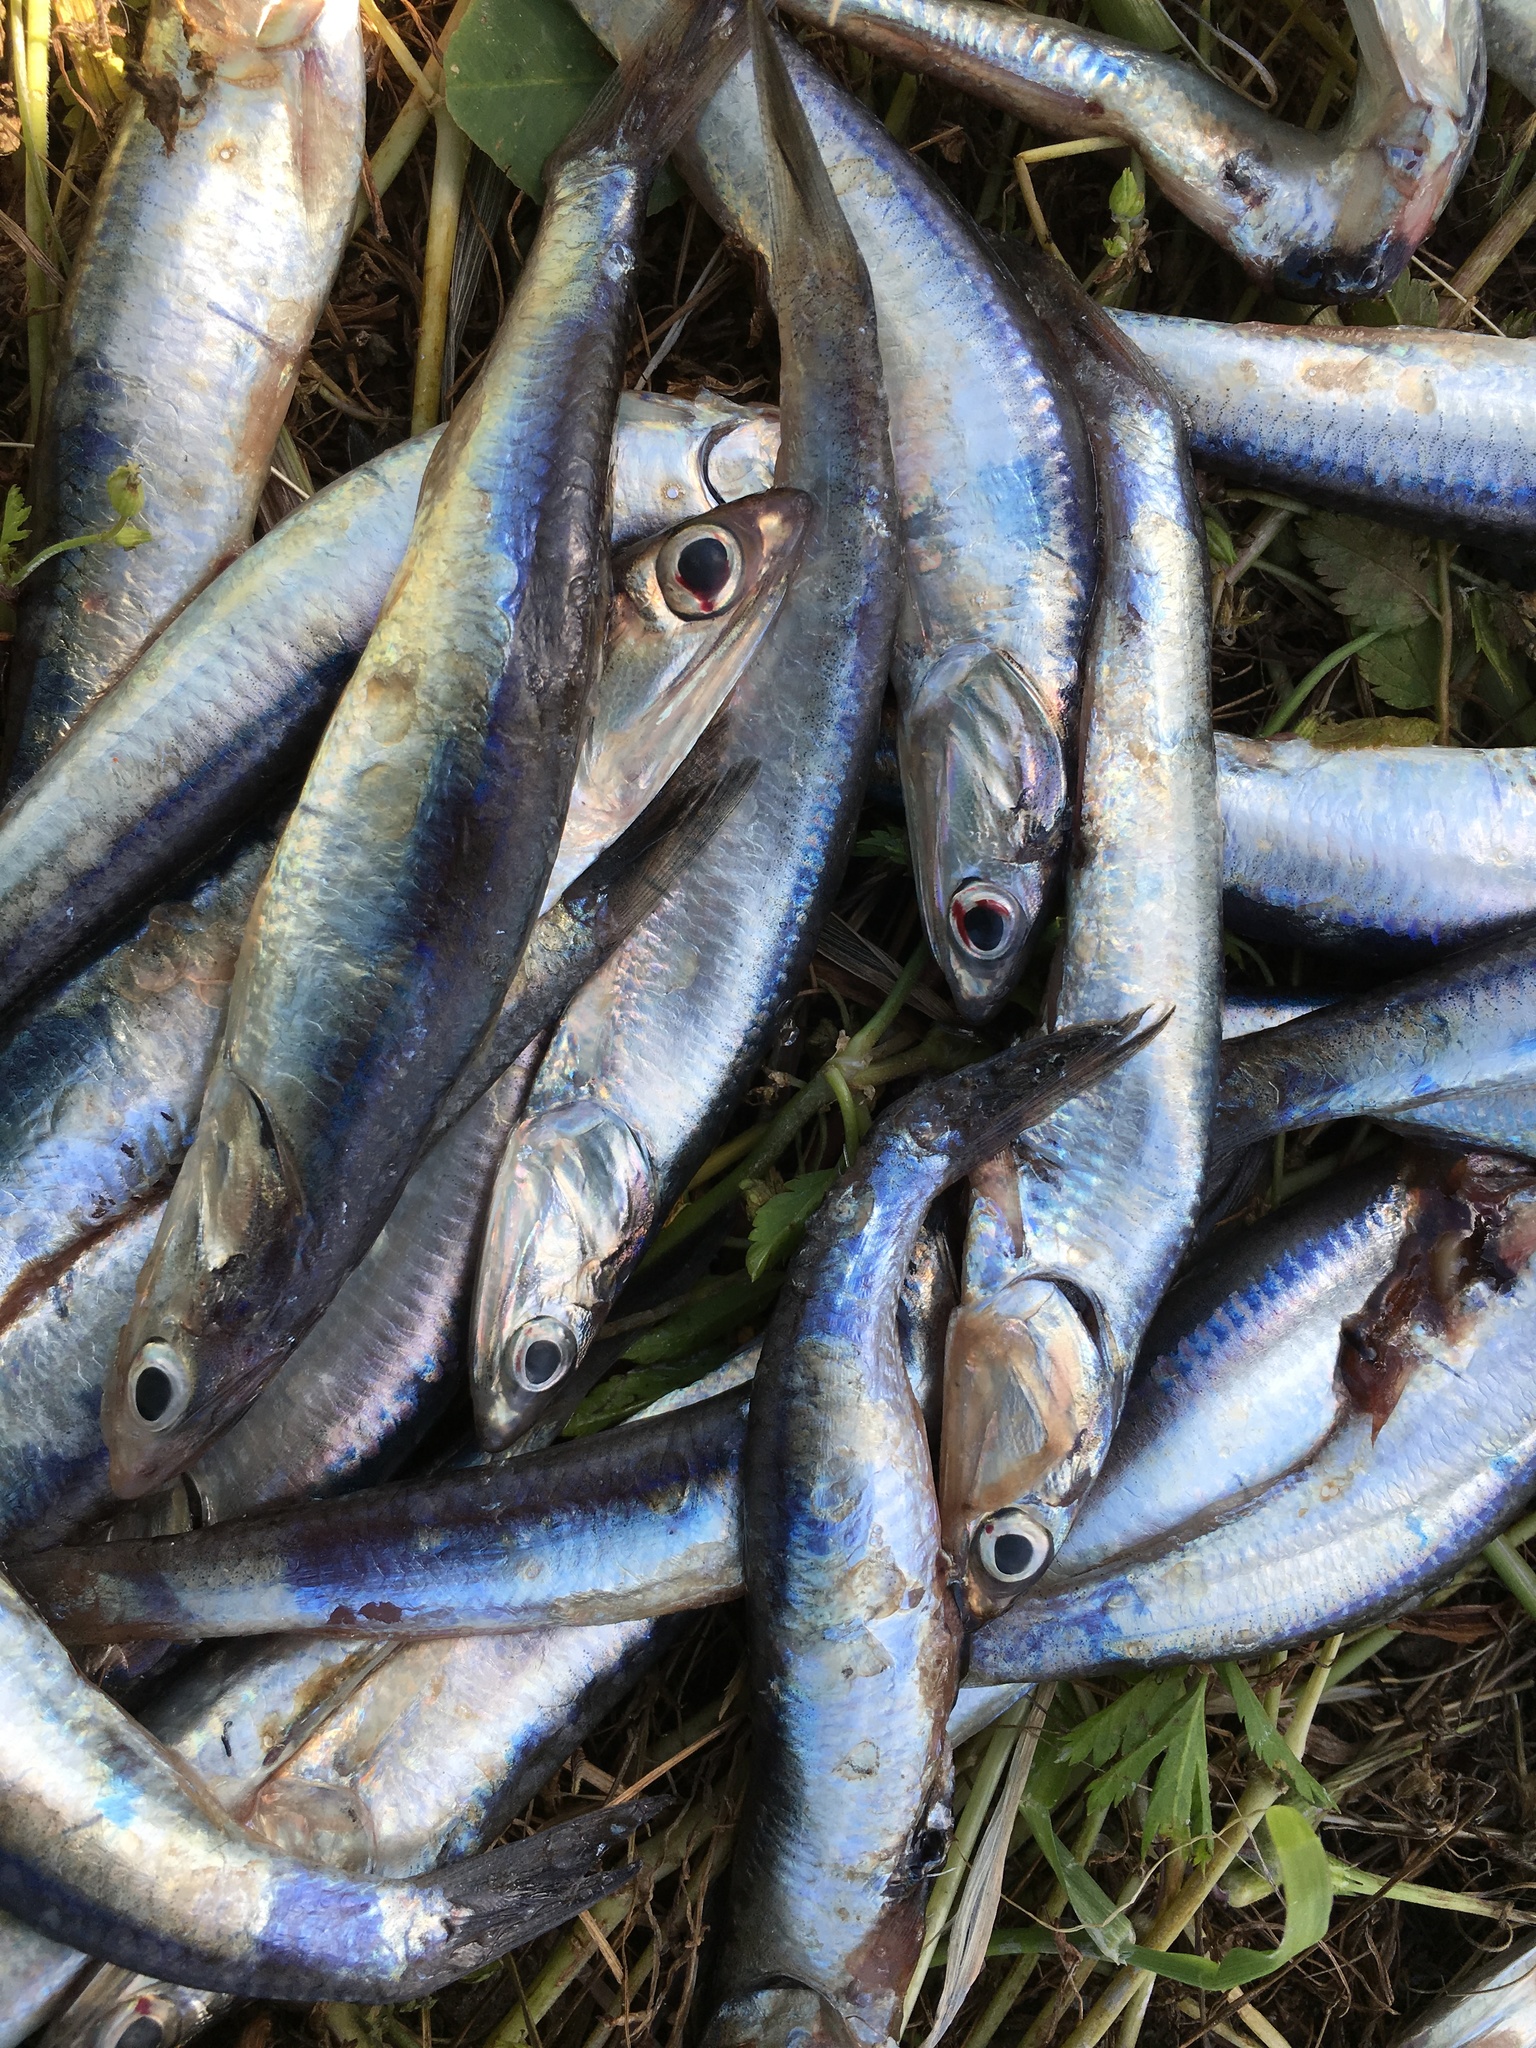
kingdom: Animalia
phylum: Chordata
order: Clupeiformes
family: Engraulidae
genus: Engraulis
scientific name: Engraulis mordax
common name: Northern anchovy
